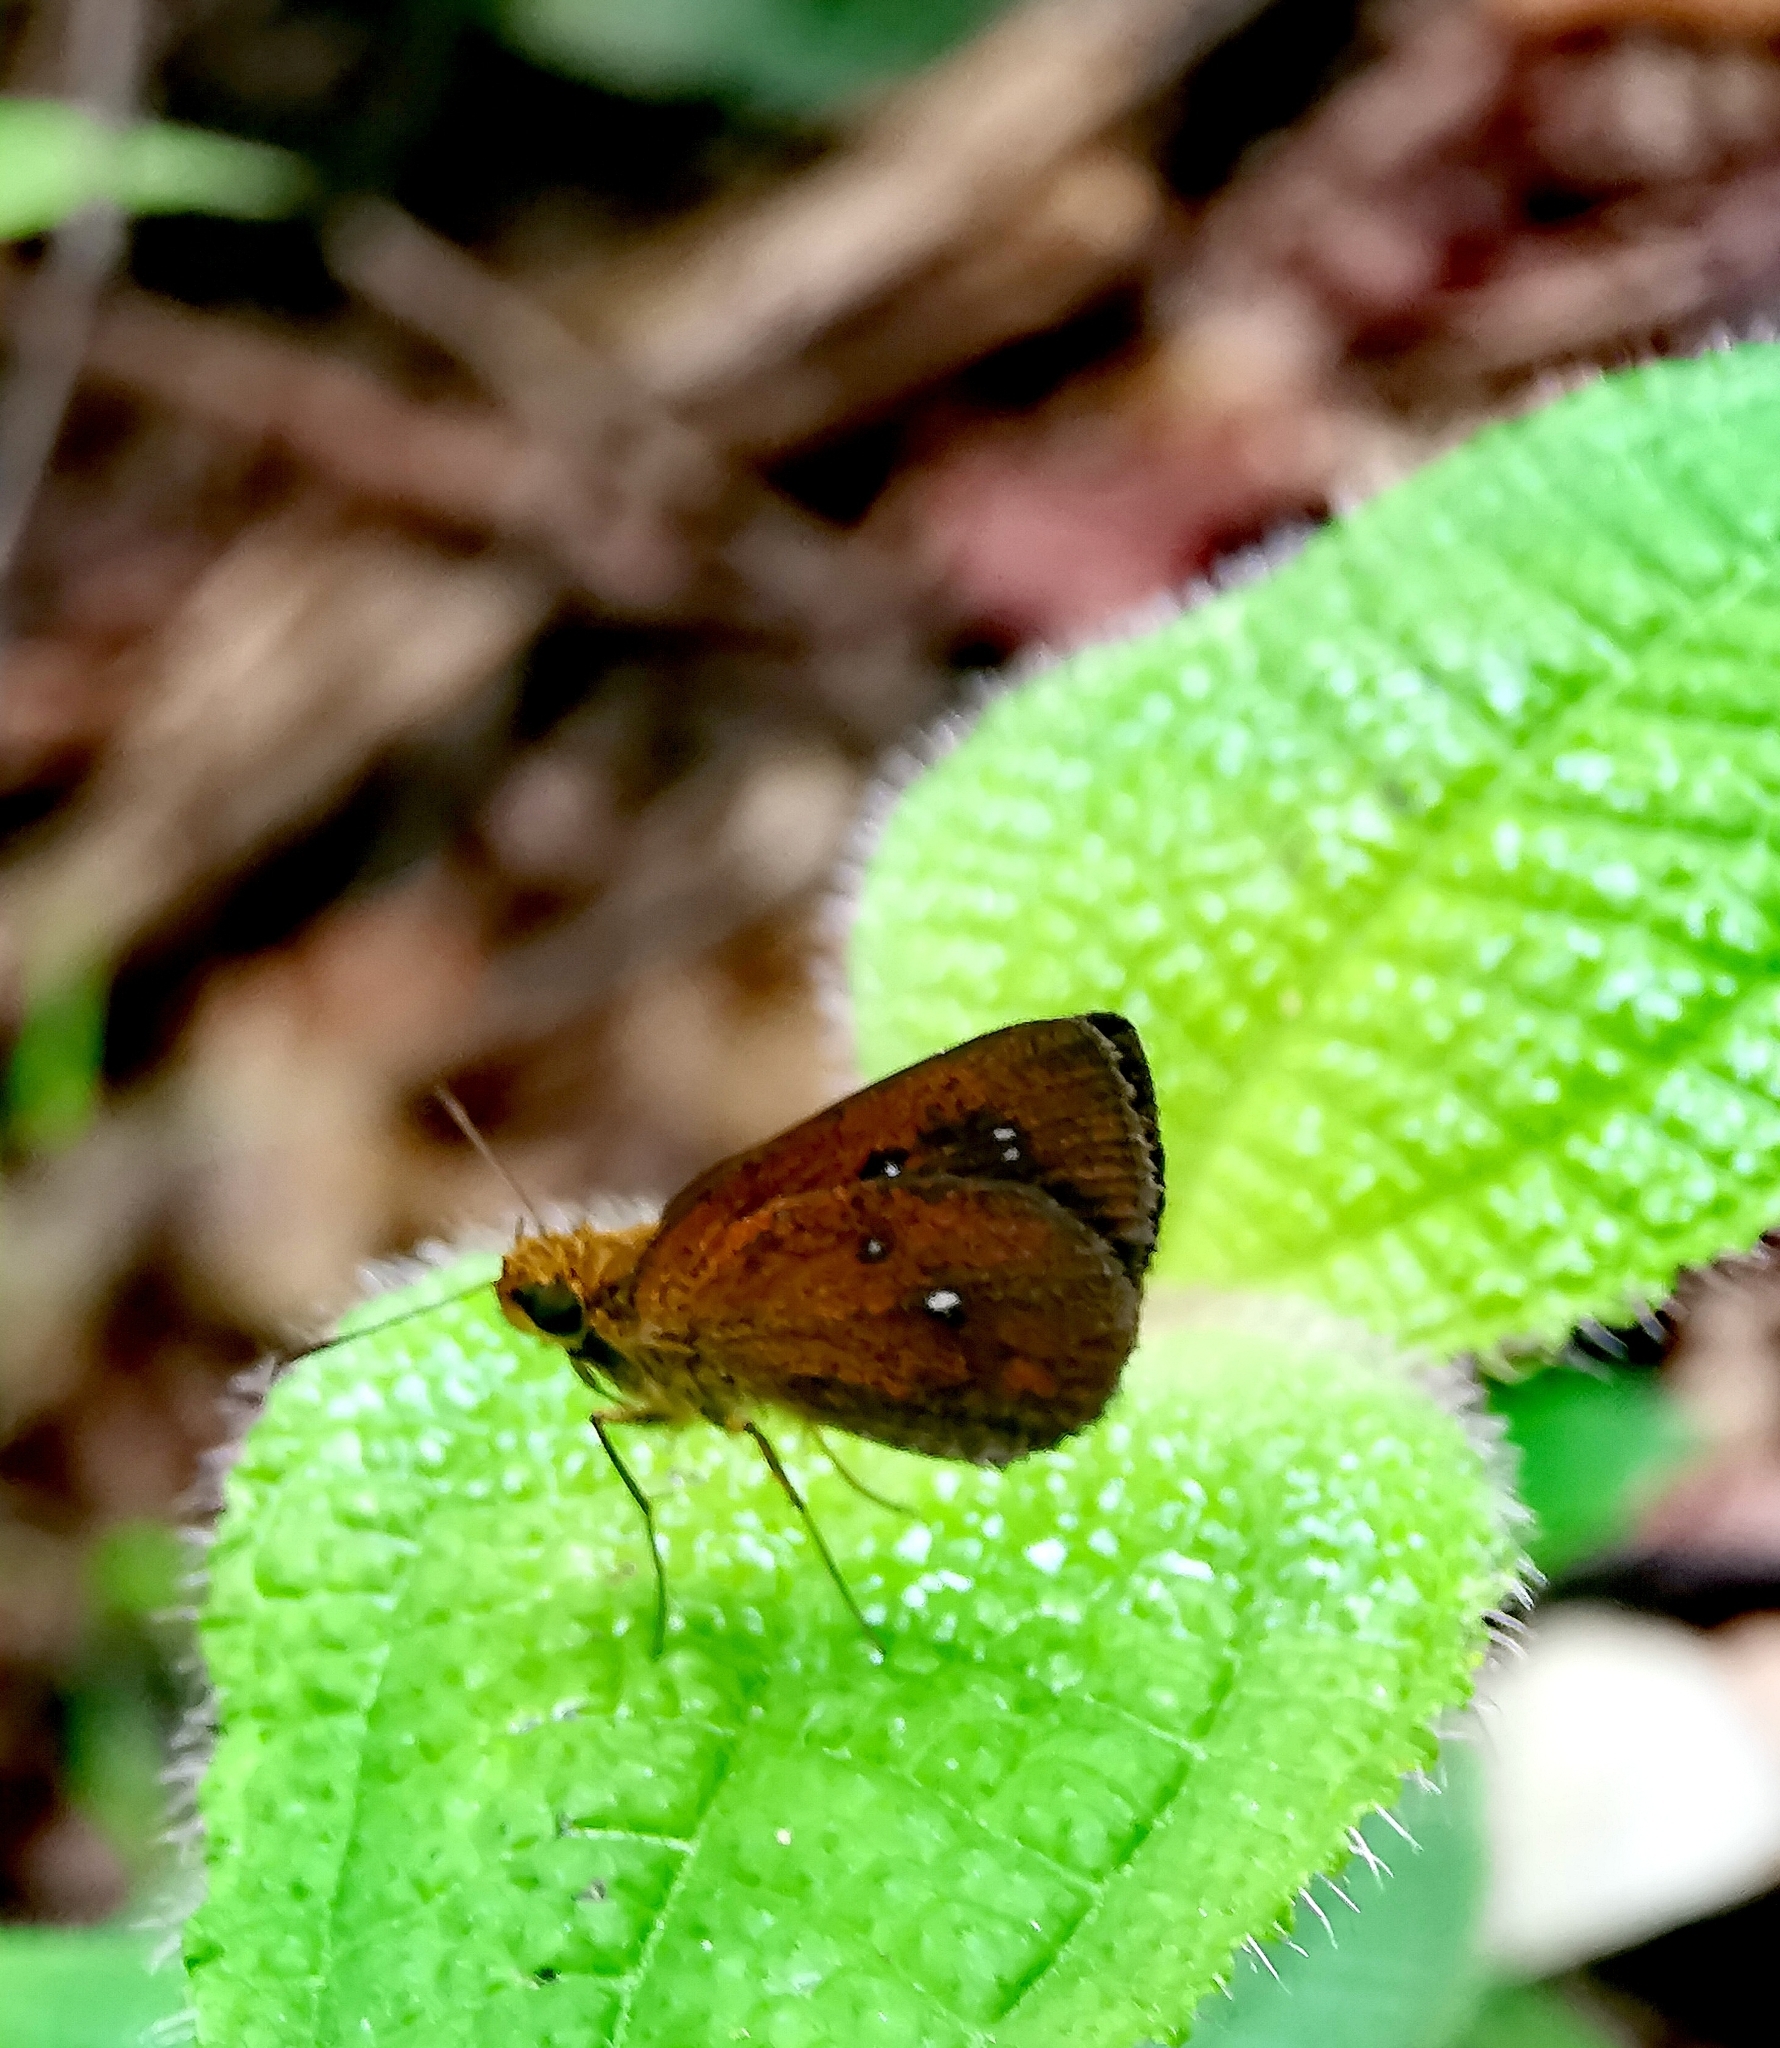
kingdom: Animalia
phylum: Arthropoda
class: Insecta
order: Lepidoptera
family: Hesperiidae
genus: Iambrix
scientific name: Iambrix salsala
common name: Chestnut bob
